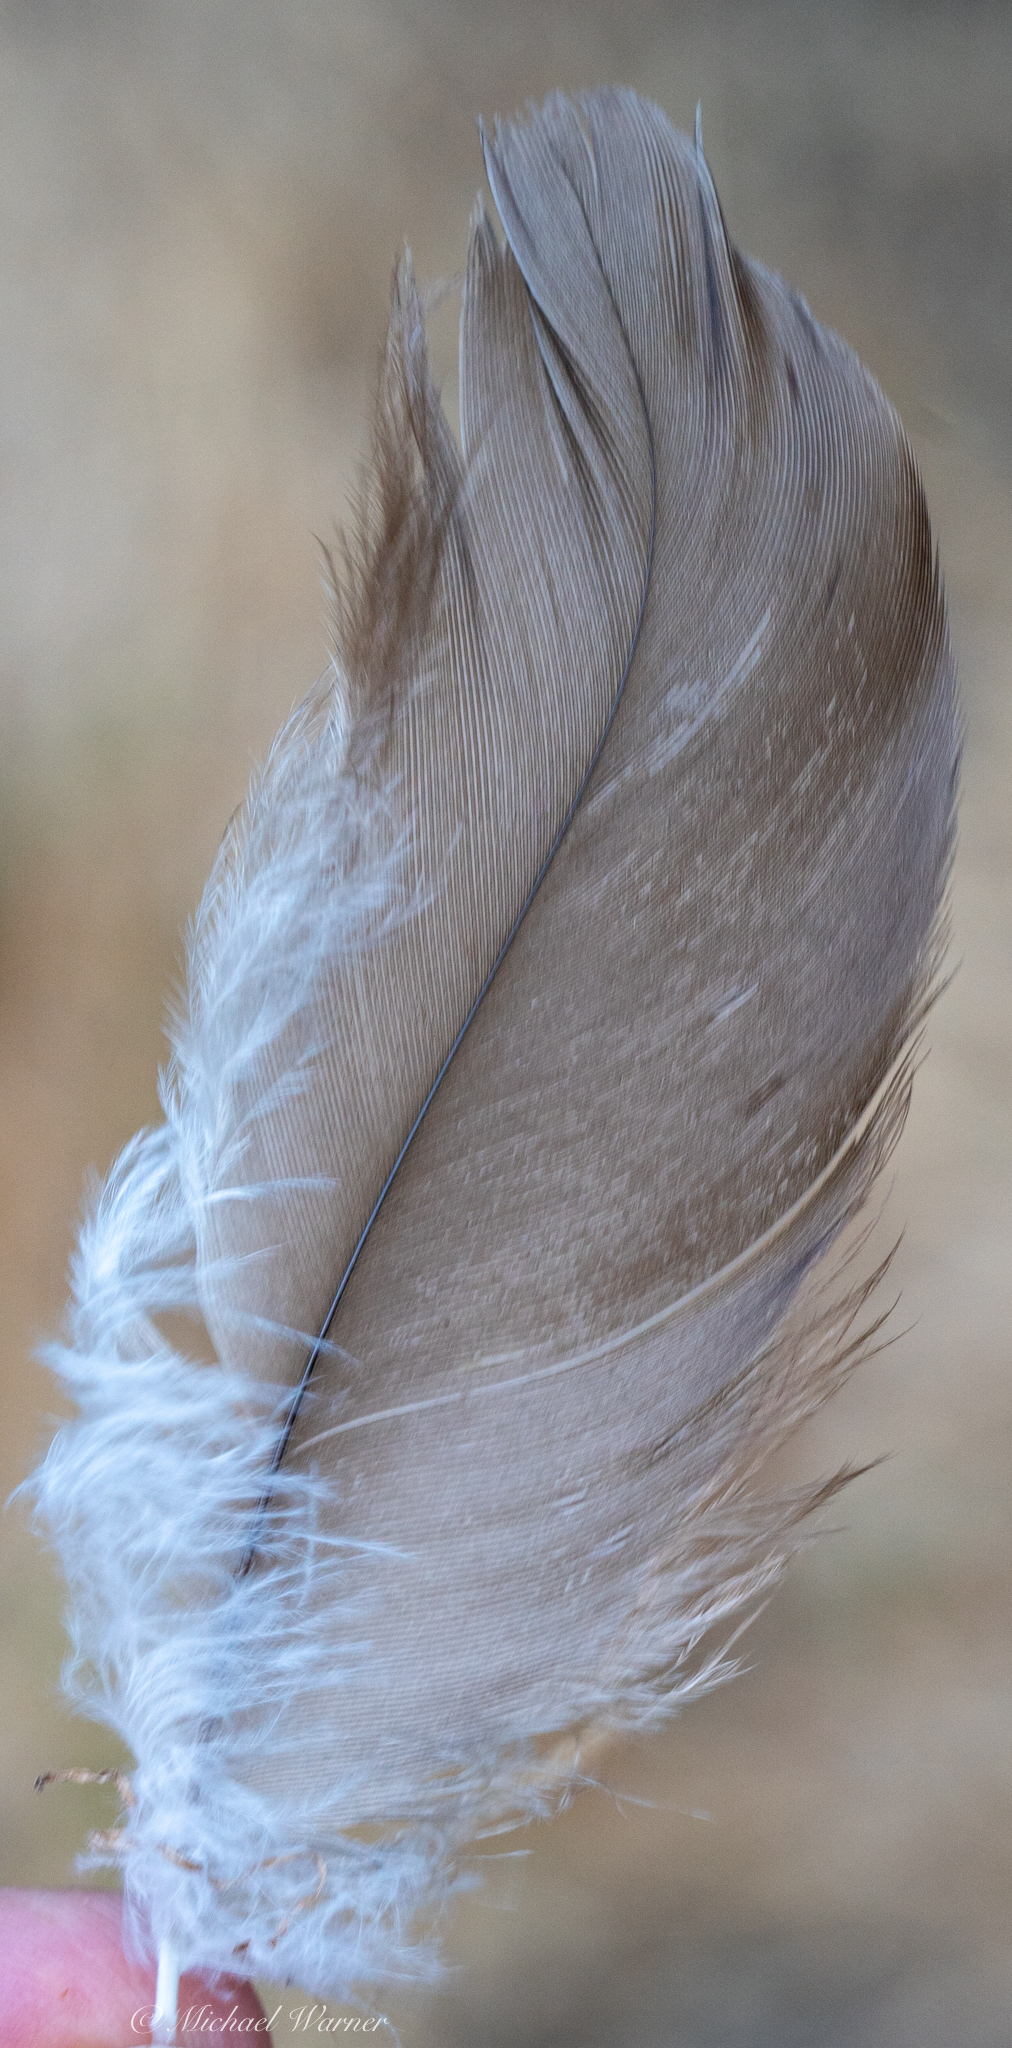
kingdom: Animalia
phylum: Chordata
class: Aves
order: Columbiformes
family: Columbidae
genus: Columba
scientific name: Columba livia
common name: Rock pigeon
